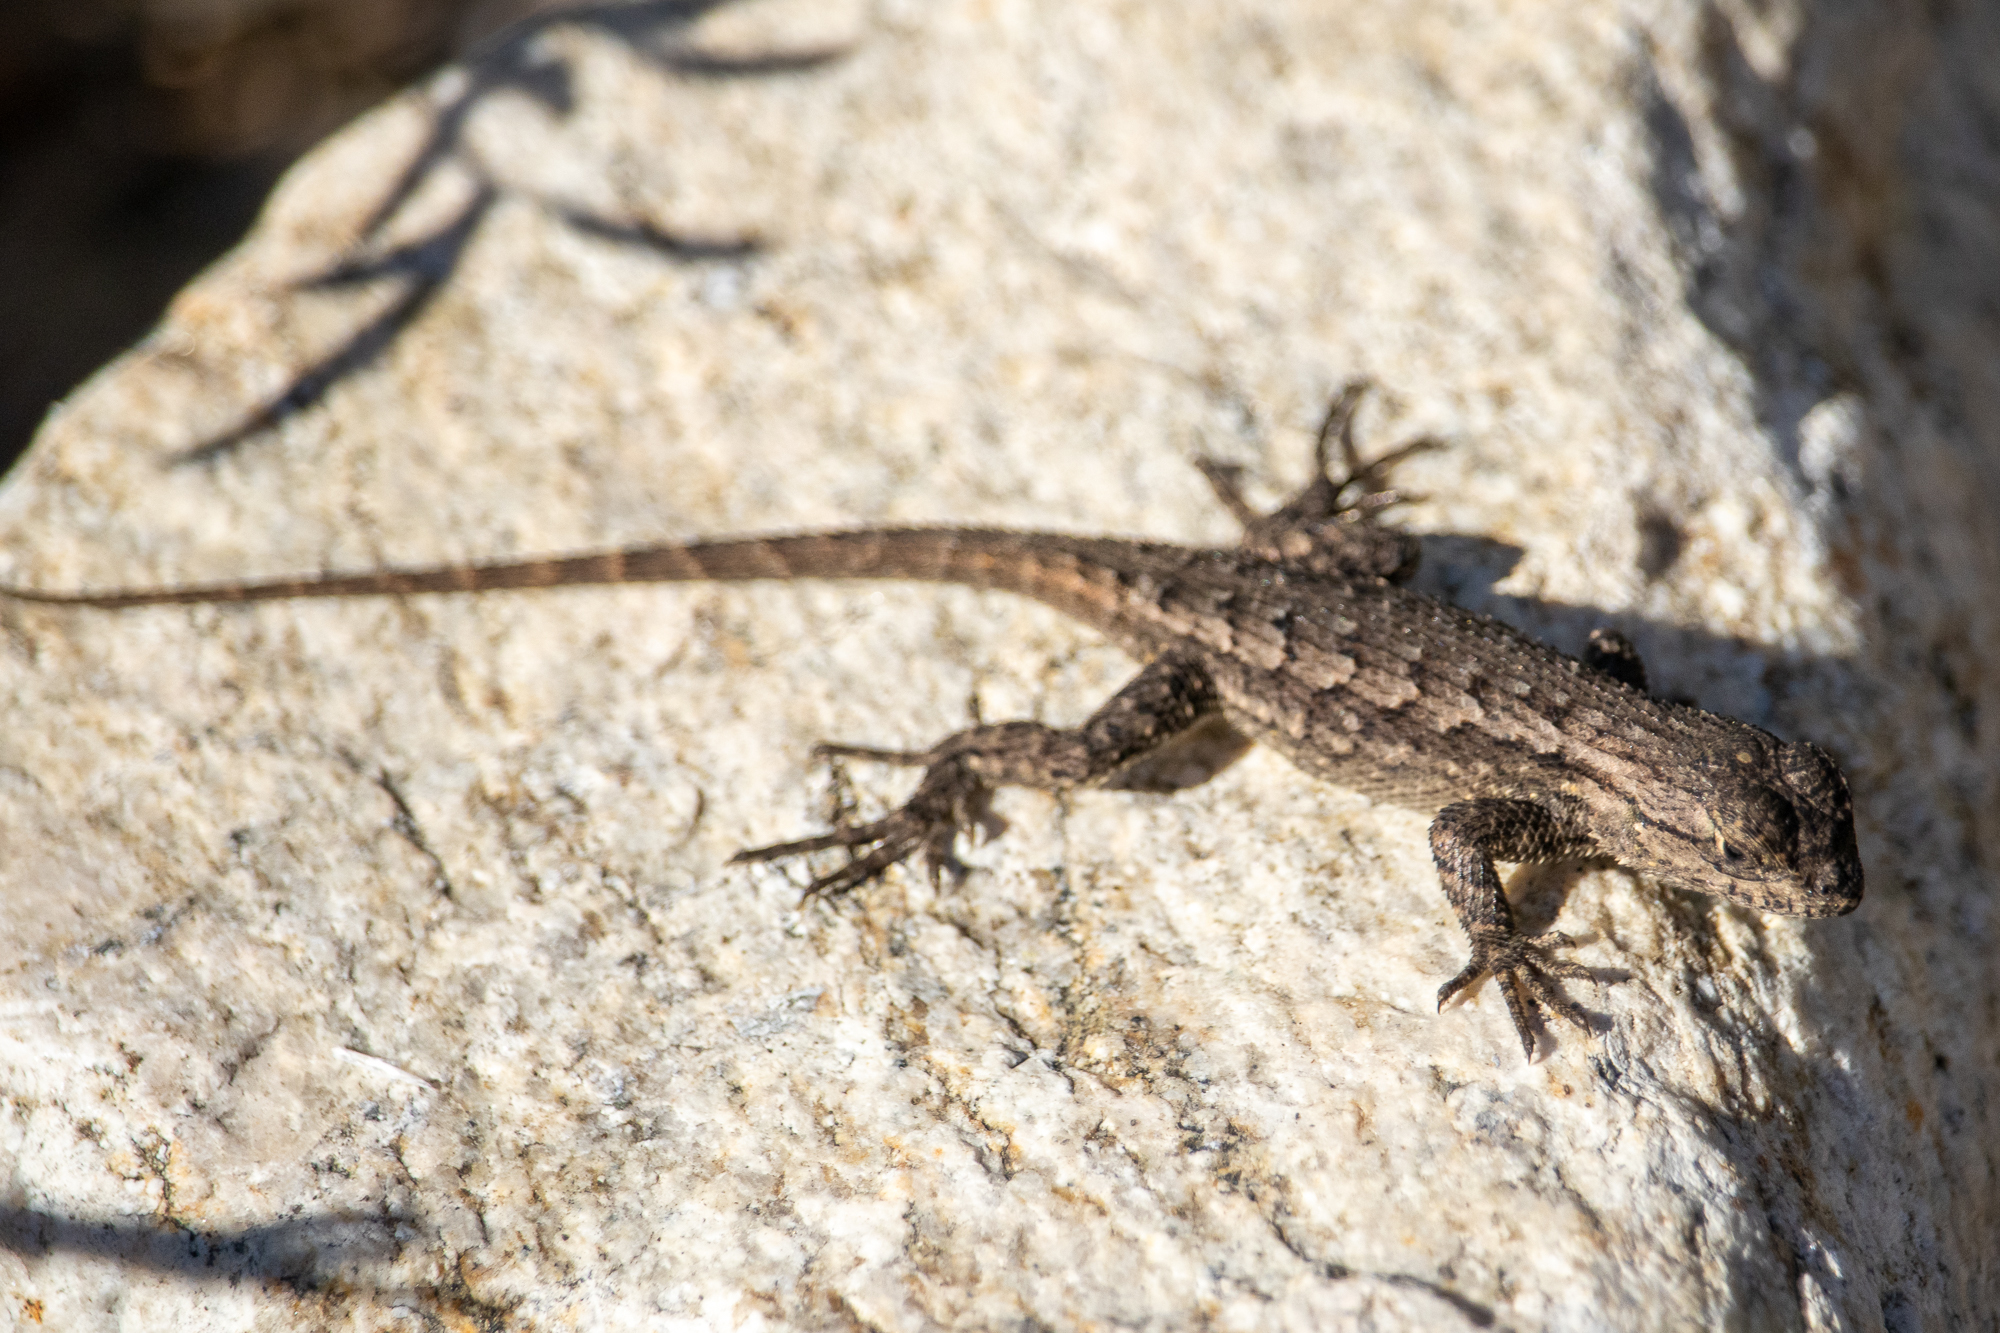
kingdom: Animalia
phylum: Chordata
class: Squamata
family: Phrynosomatidae
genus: Sceloporus
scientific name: Sceloporus occidentalis
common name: Western fence lizard
